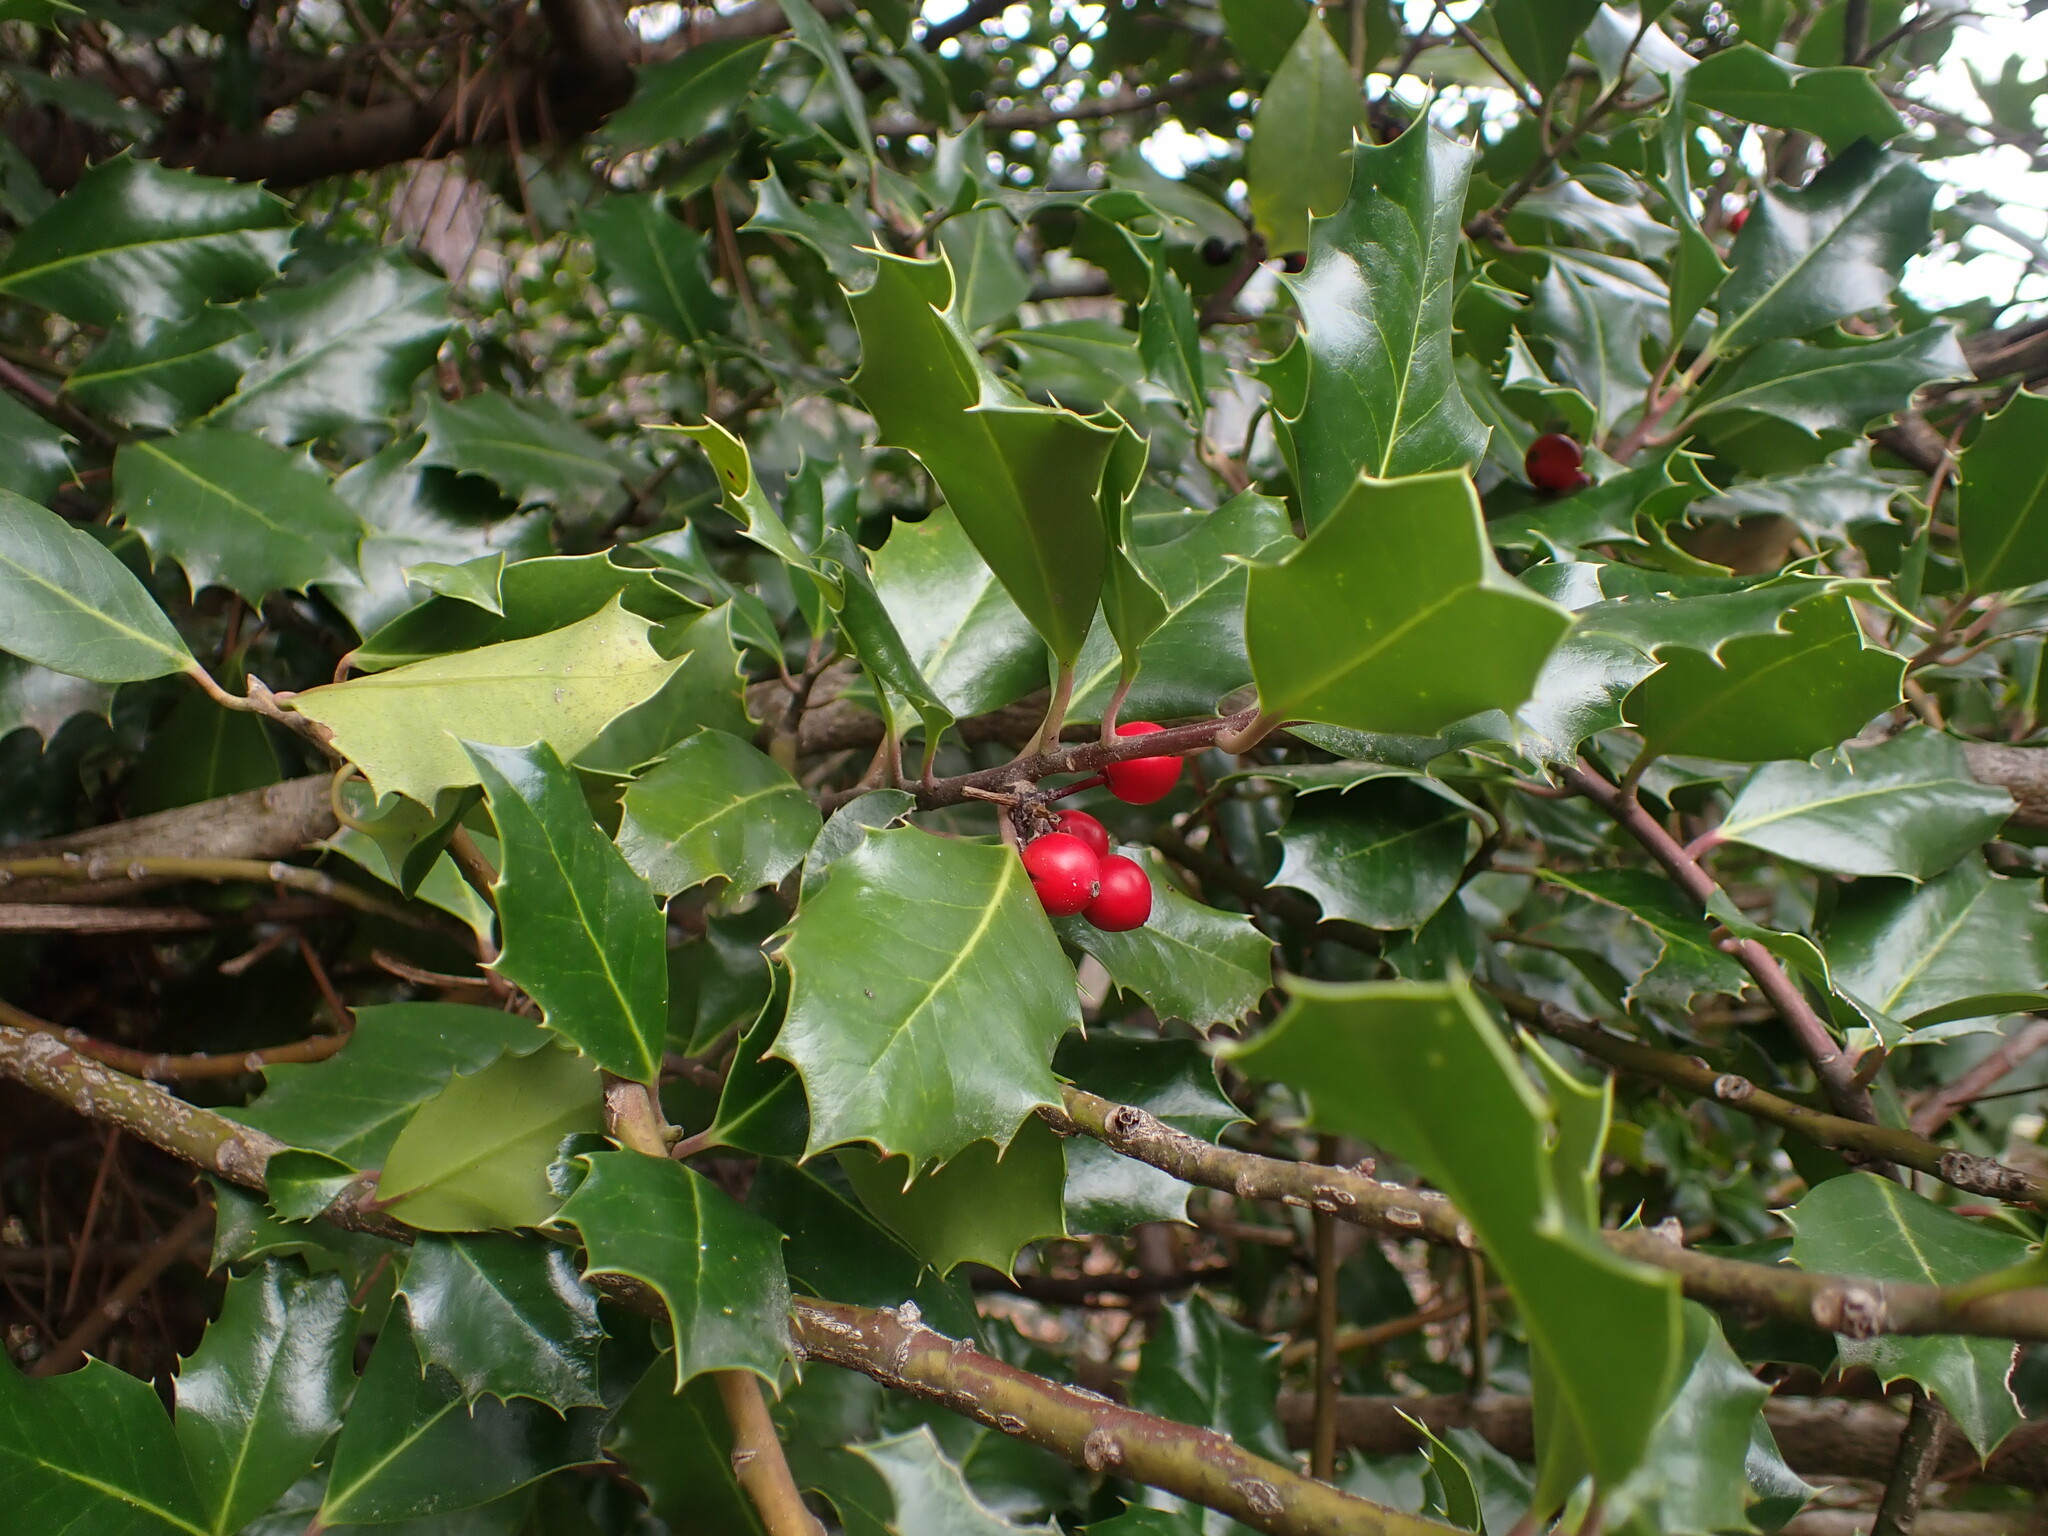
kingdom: Plantae
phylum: Tracheophyta
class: Magnoliopsida
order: Aquifoliales
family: Aquifoliaceae
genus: Ilex
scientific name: Ilex aquifolium
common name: English holly
